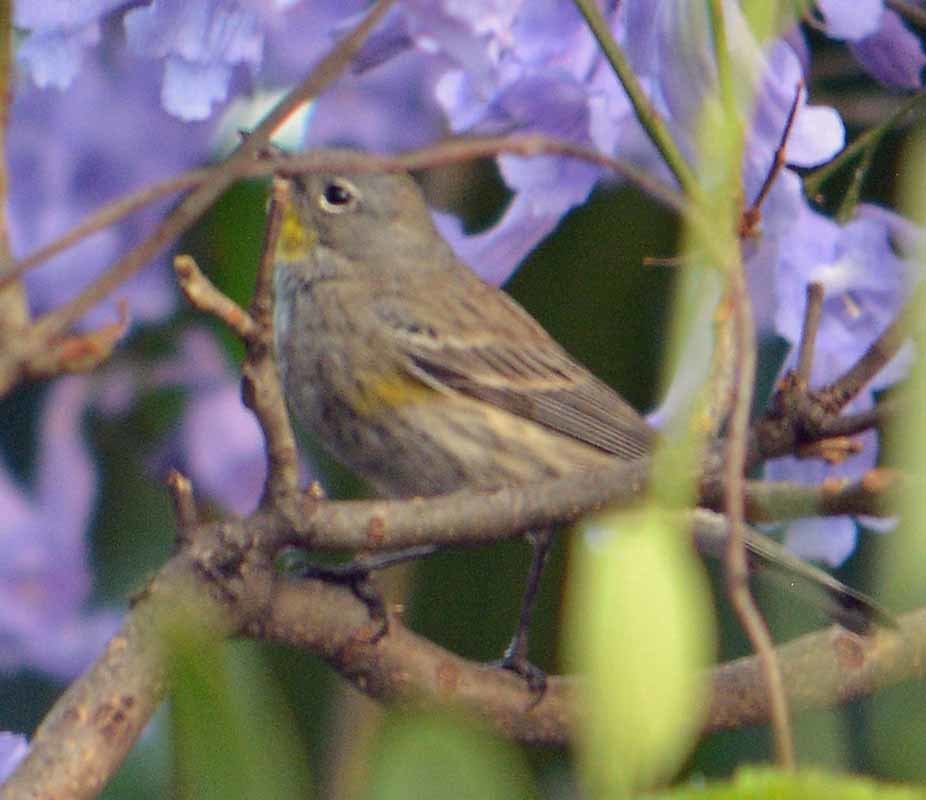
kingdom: Animalia
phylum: Chordata
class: Aves
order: Passeriformes
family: Parulidae
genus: Setophaga
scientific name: Setophaga coronata
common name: Myrtle warbler
